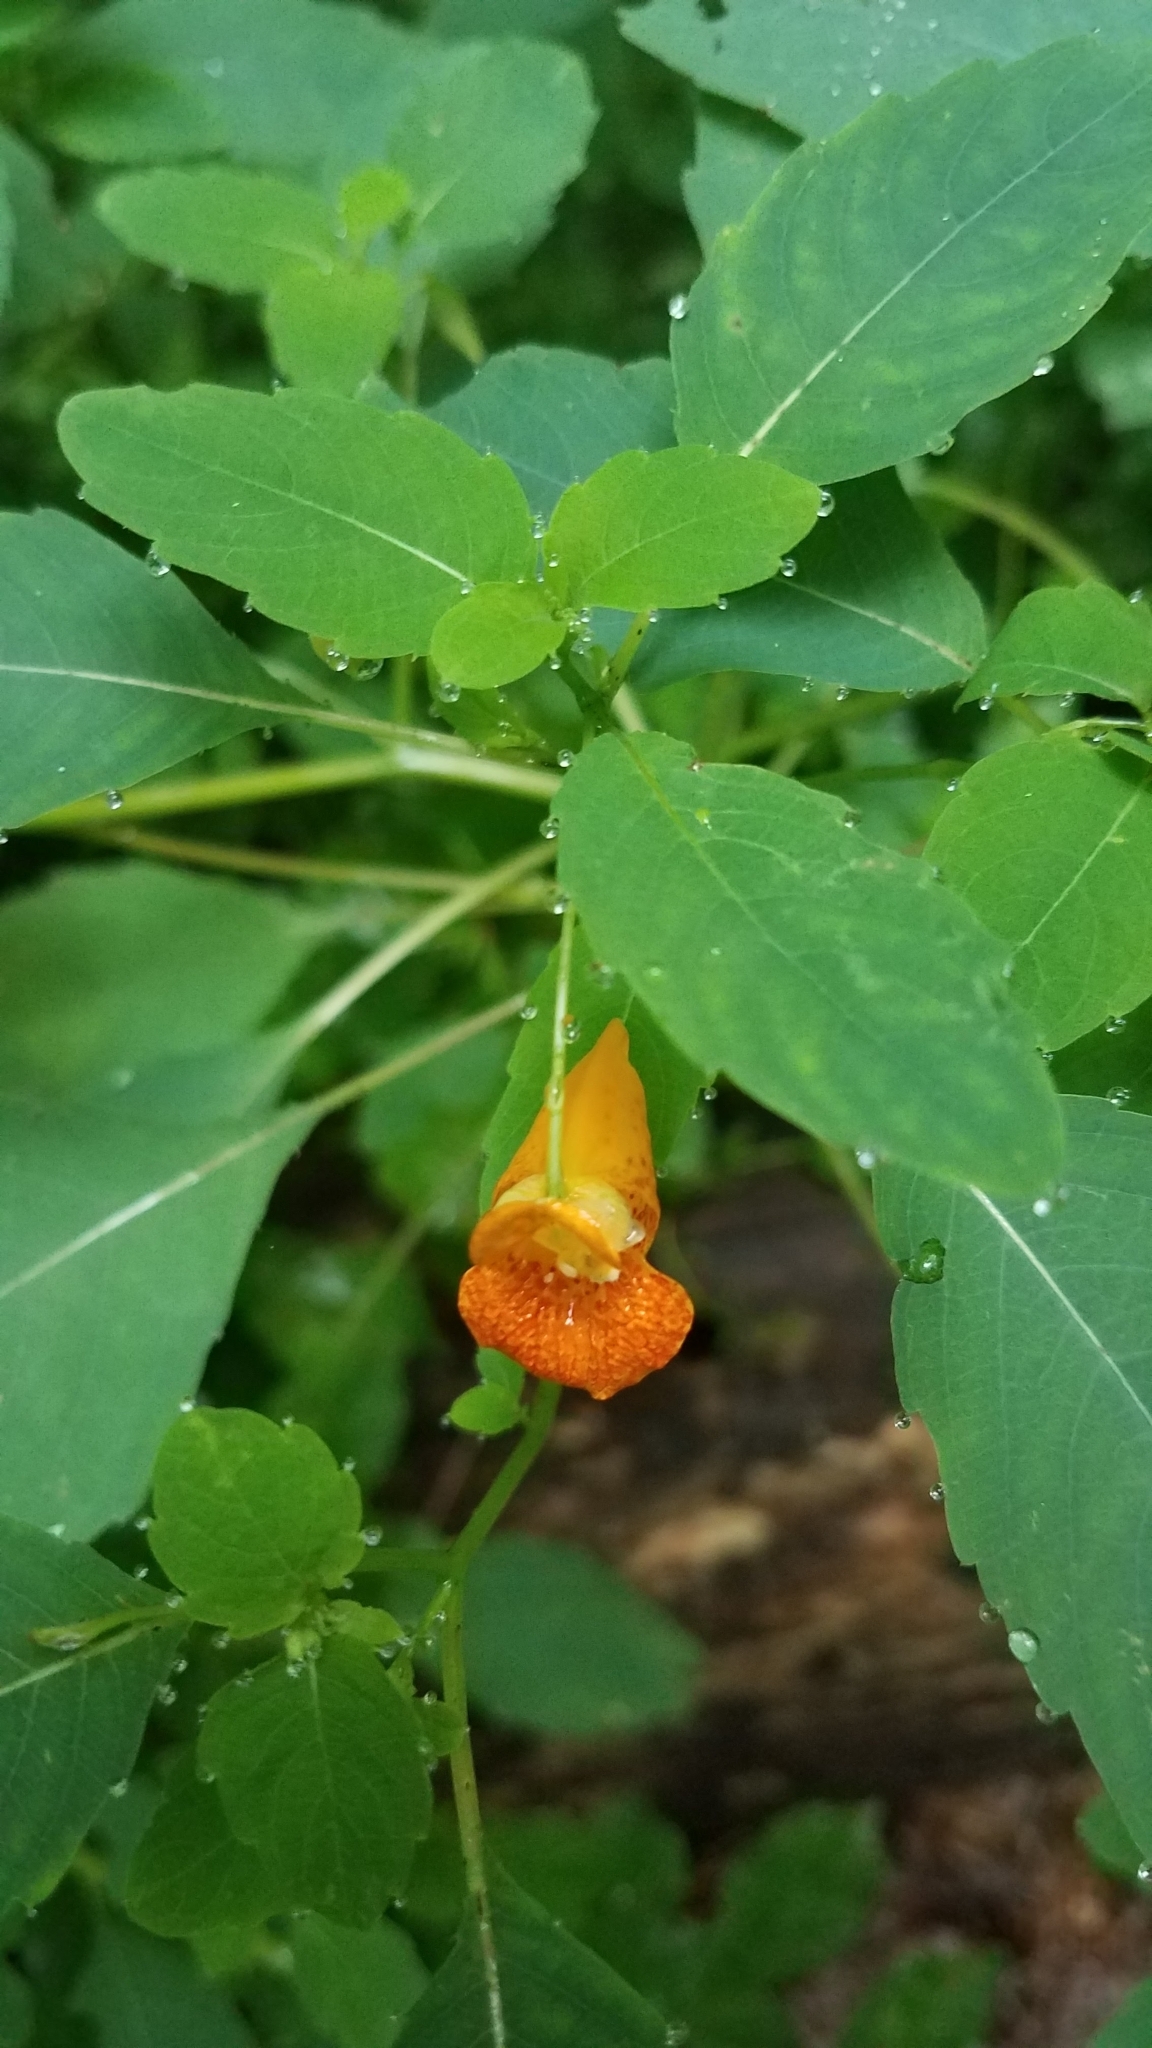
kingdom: Plantae
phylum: Tracheophyta
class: Magnoliopsida
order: Ericales
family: Balsaminaceae
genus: Impatiens
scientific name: Impatiens capensis
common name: Orange balsam
